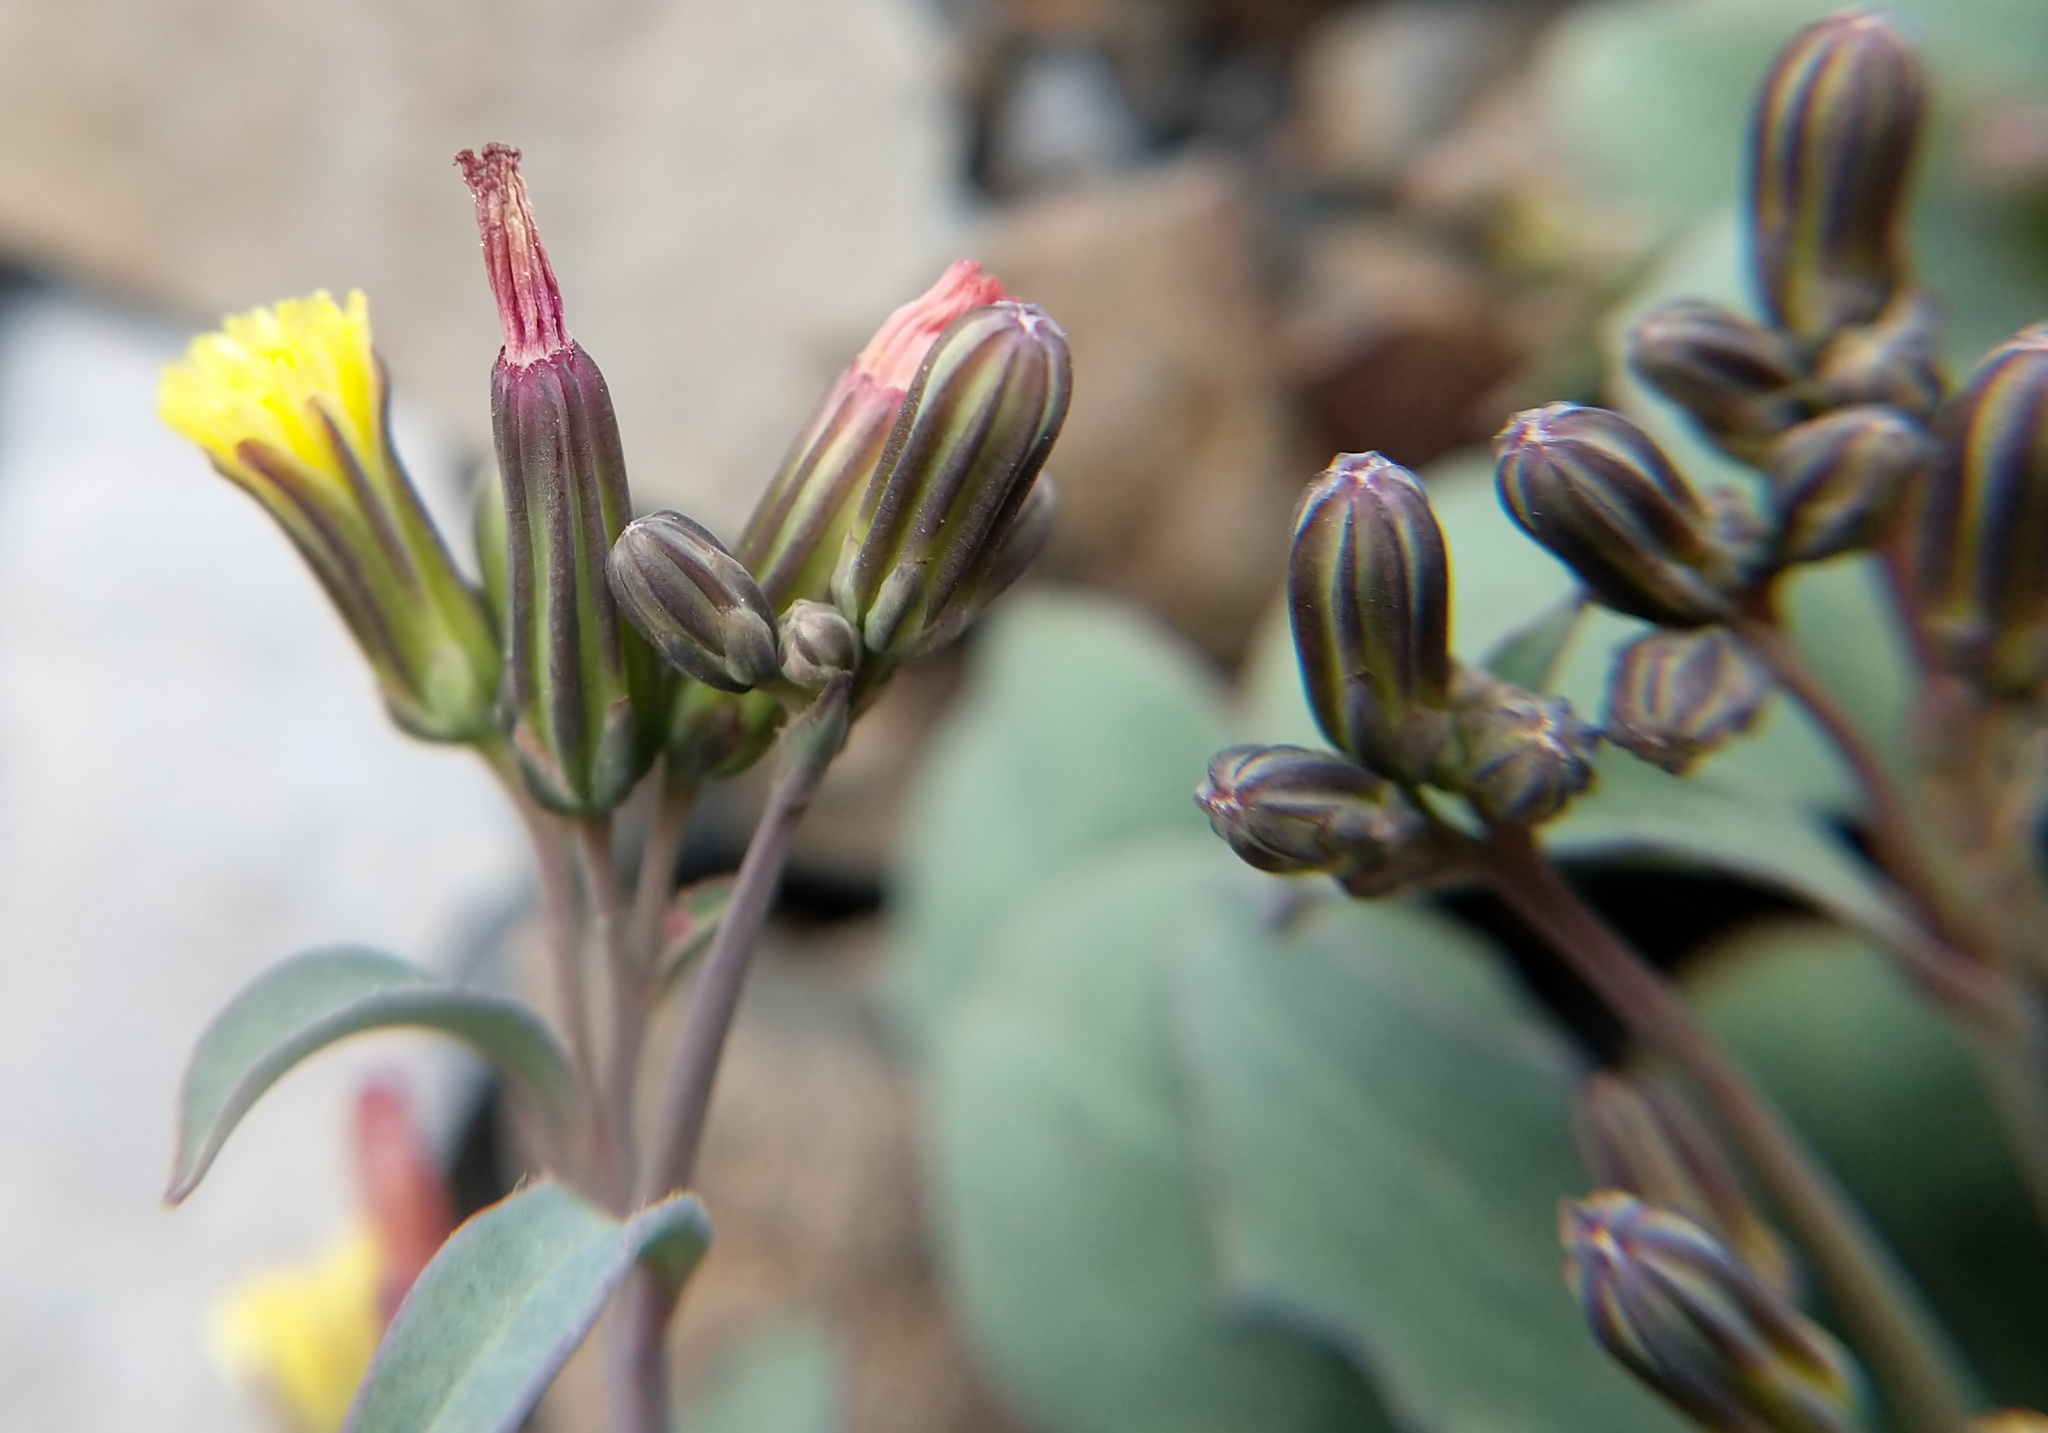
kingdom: Plantae
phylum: Tracheophyta
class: Magnoliopsida
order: Asterales
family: Asteraceae
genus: Askellia
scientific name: Askellia pygmaea
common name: Dwarf alpine hawksbeard
